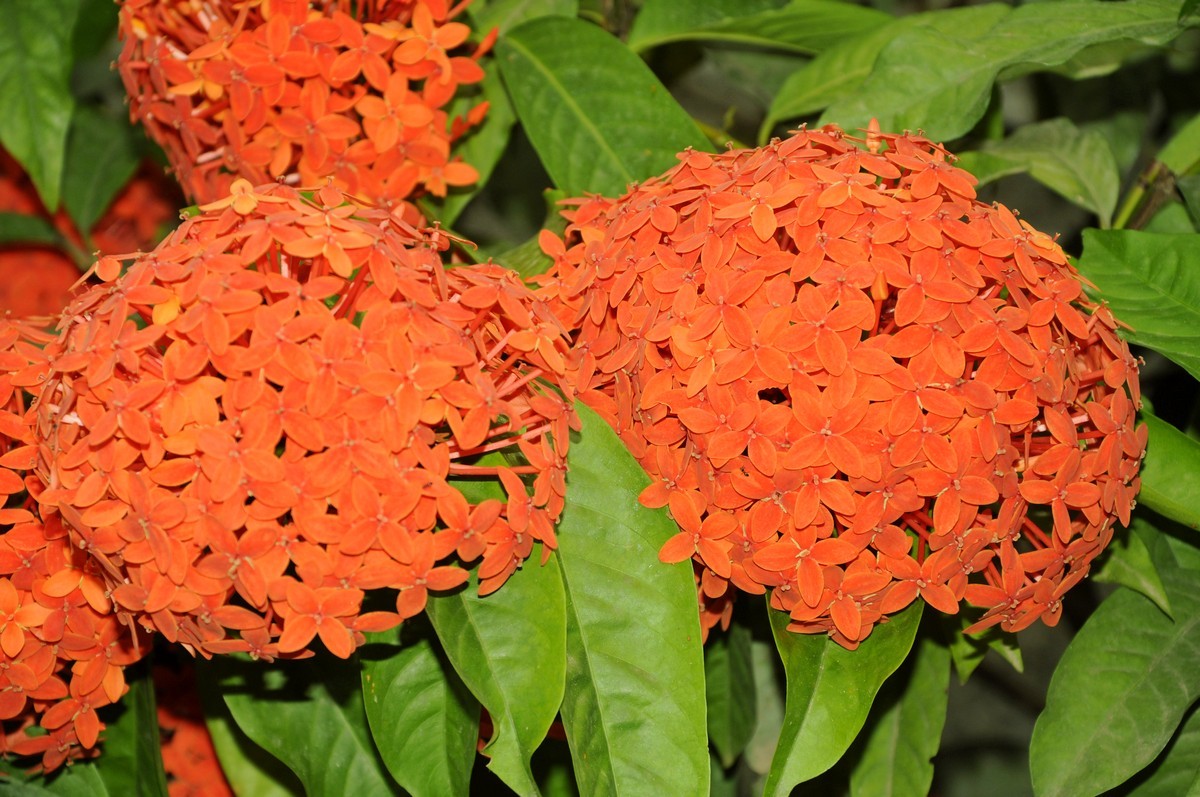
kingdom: Plantae
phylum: Tracheophyta
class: Magnoliopsida
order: Gentianales
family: Rubiaceae
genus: Ixora
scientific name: Ixora coccinea
